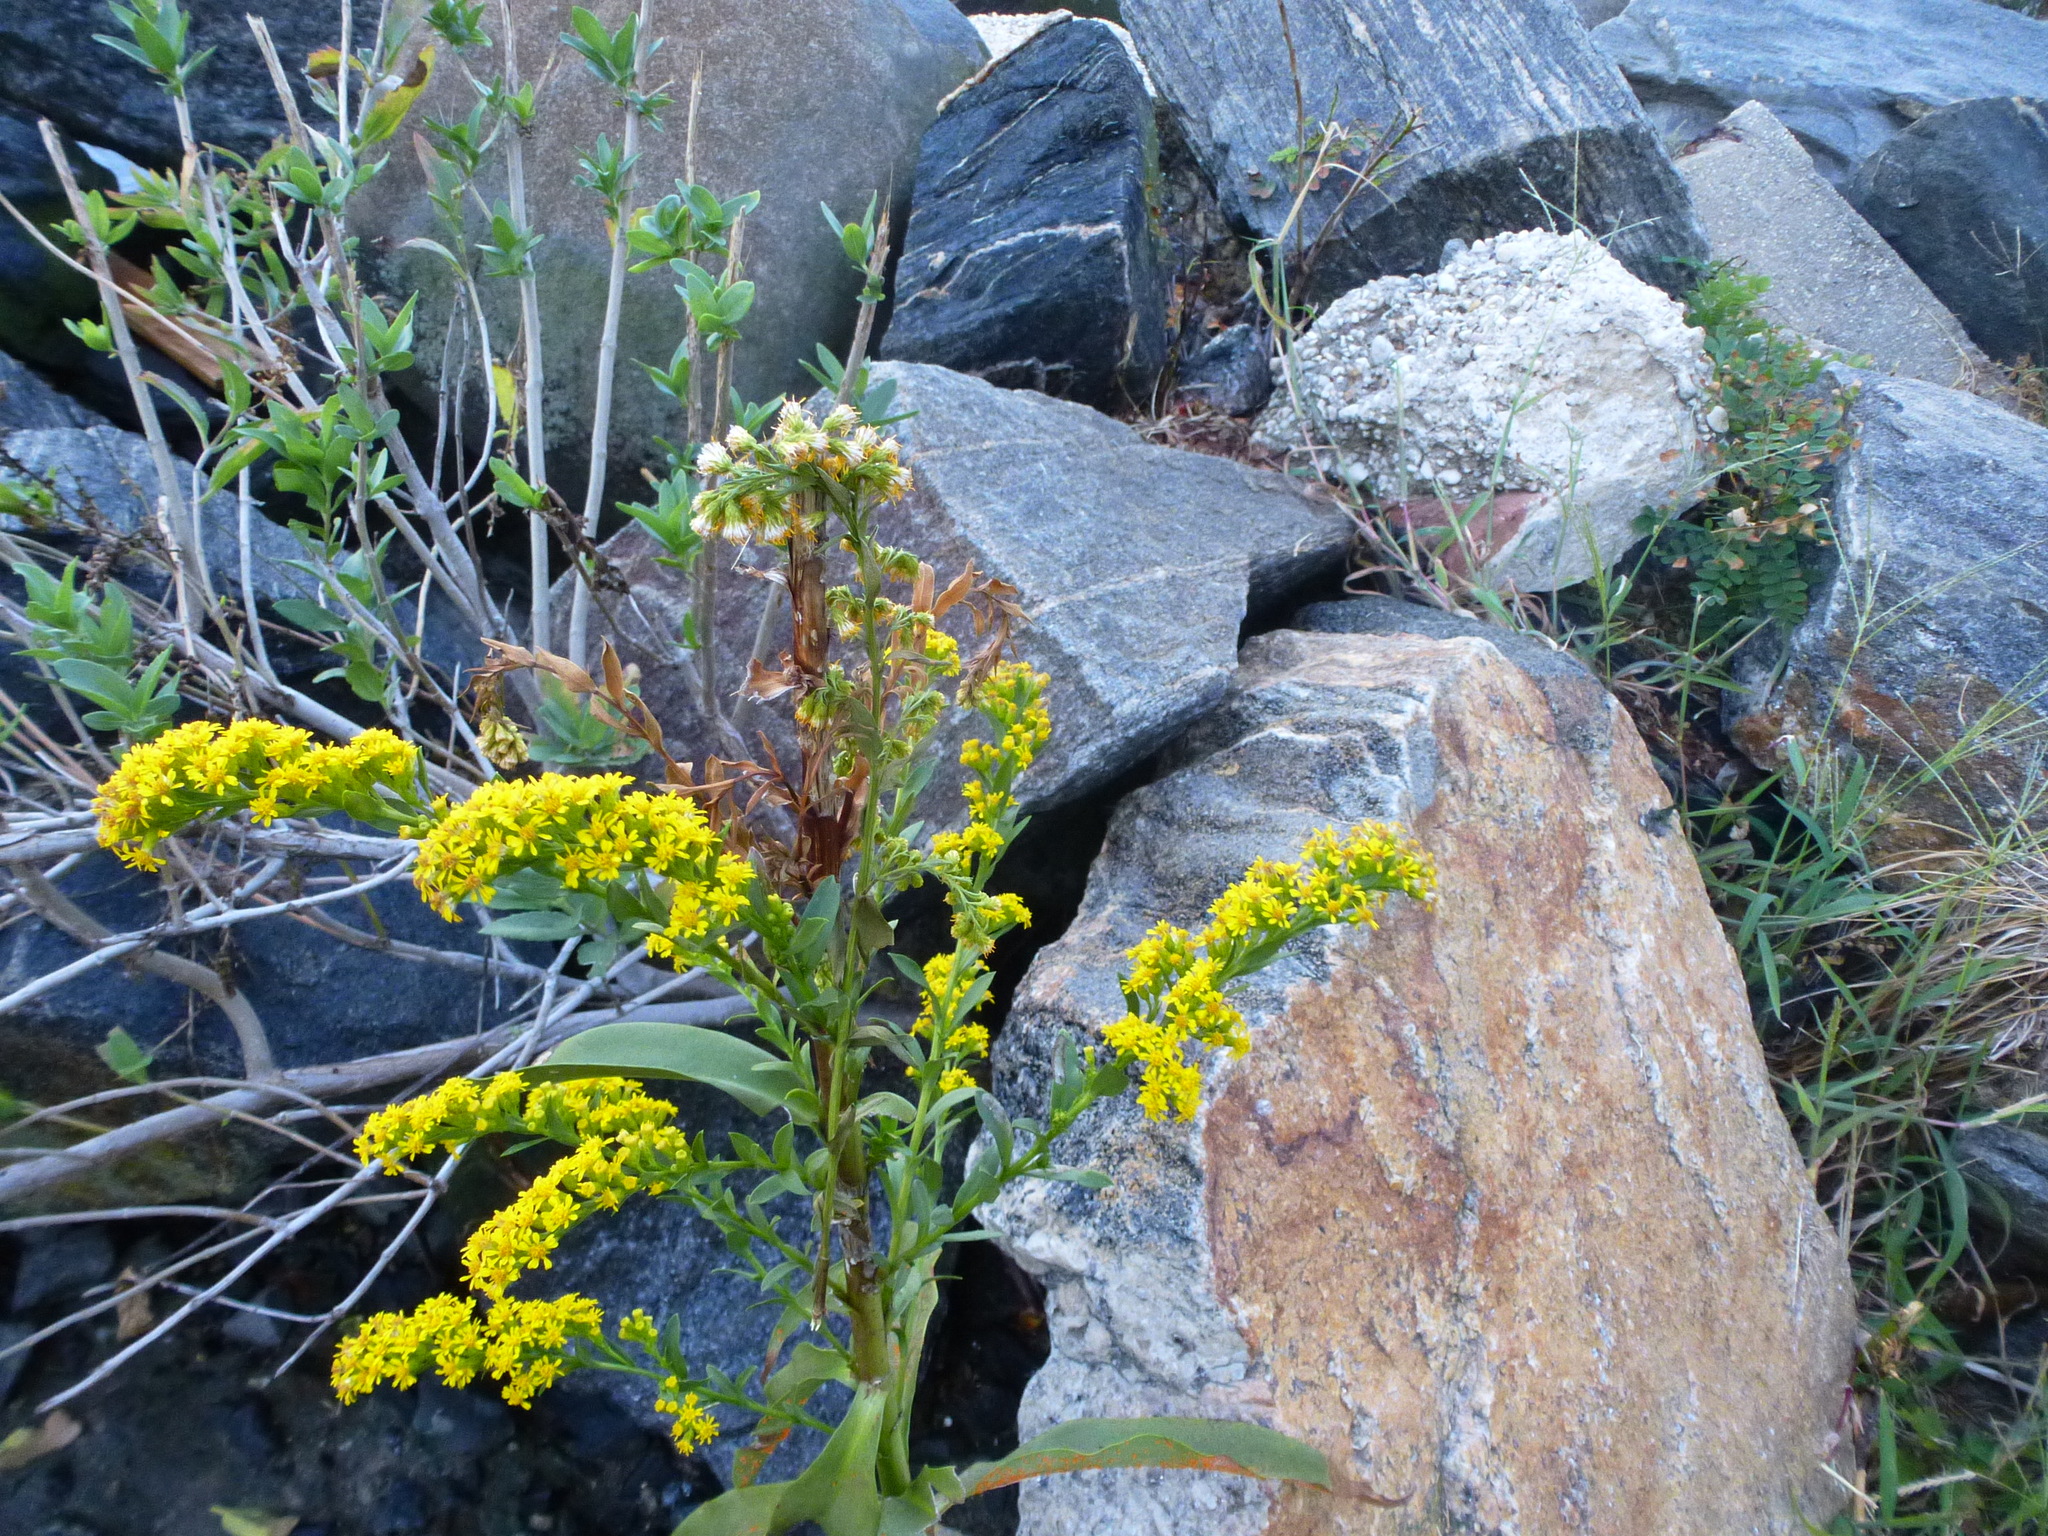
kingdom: Plantae
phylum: Tracheophyta
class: Magnoliopsida
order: Asterales
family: Asteraceae
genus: Solidago
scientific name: Solidago sempervirens
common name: Salt-marsh goldenrod
